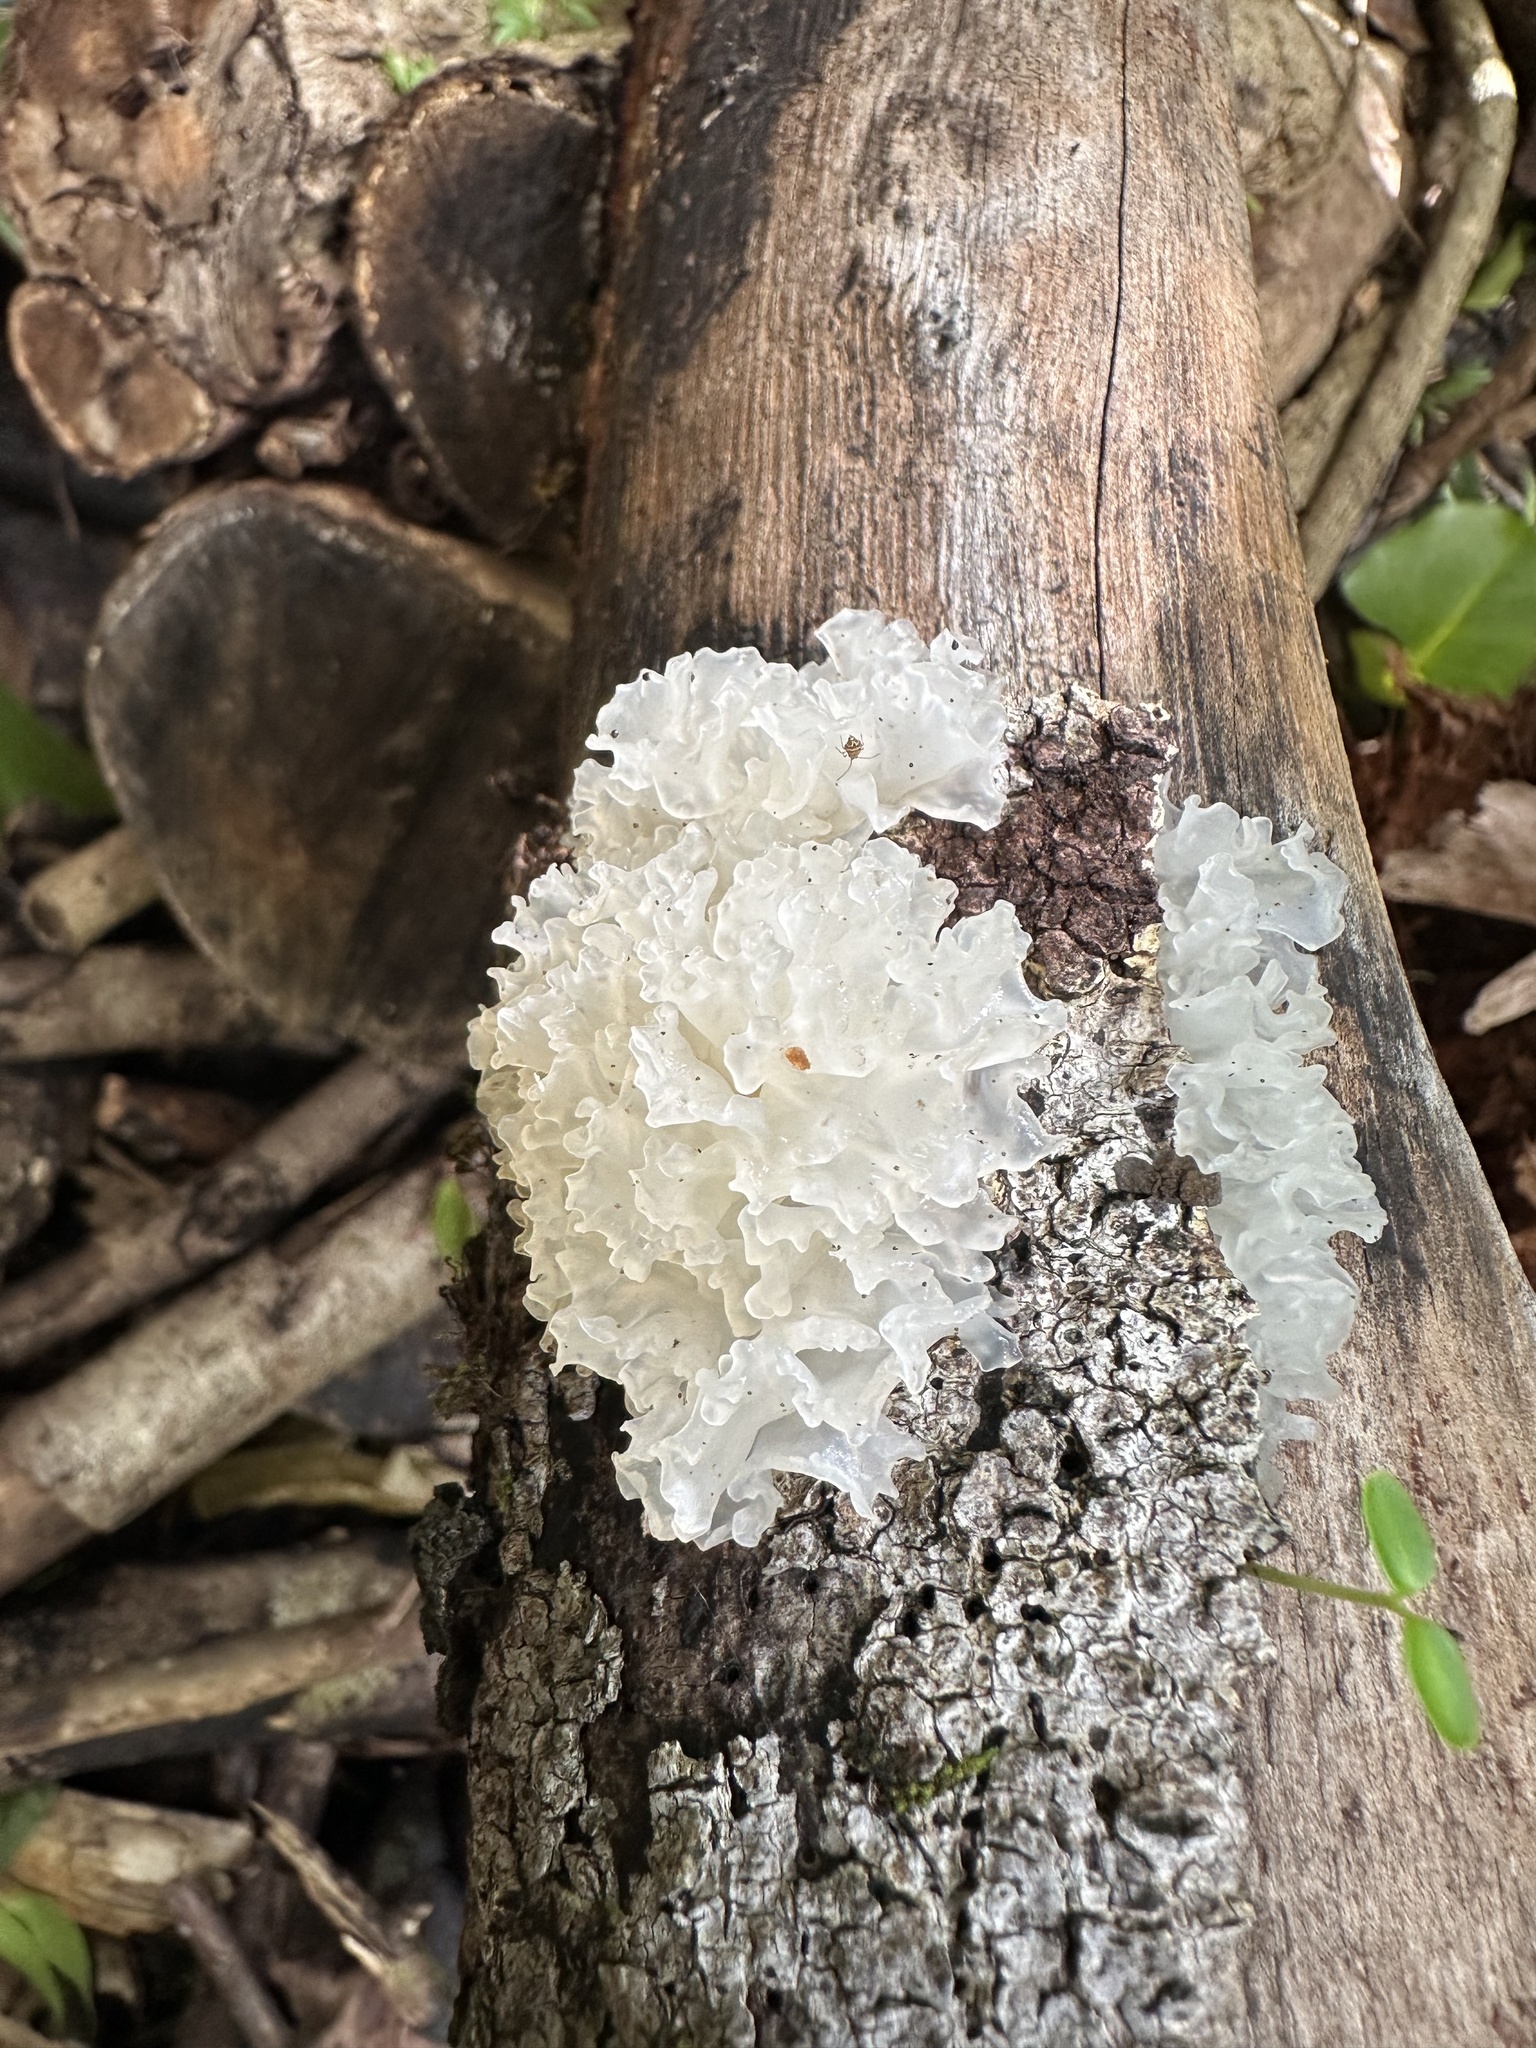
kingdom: Fungi
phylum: Basidiomycota
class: Tremellomycetes
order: Tremellales
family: Tremellaceae
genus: Tremella
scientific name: Tremella fuciformis
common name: Snow fungus
